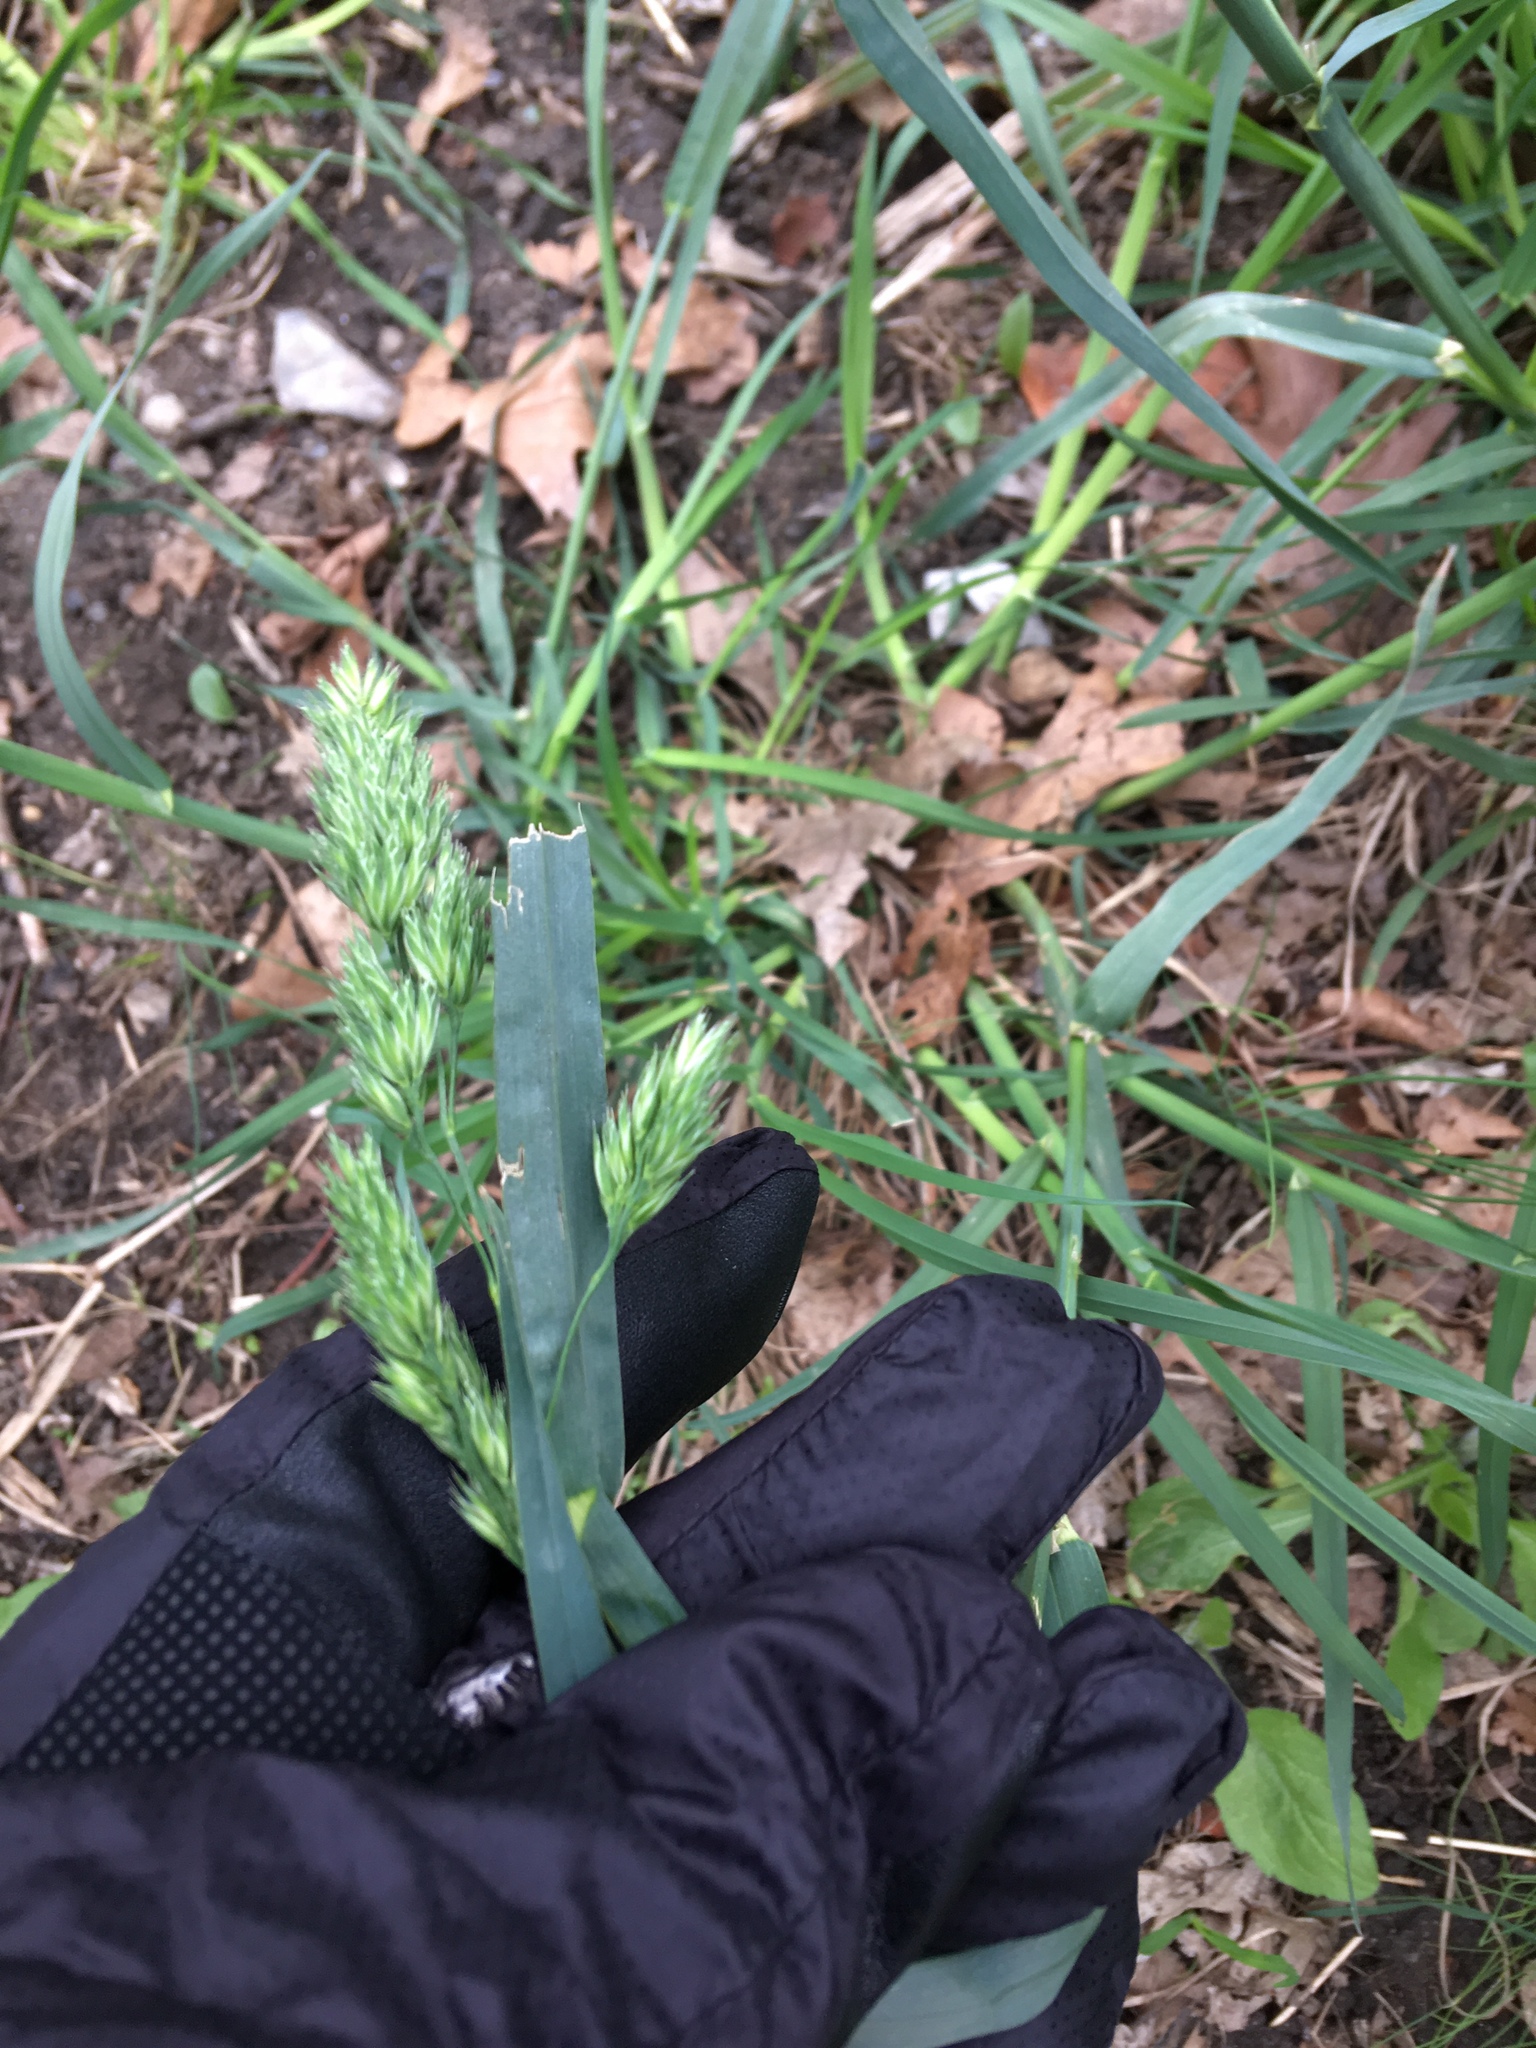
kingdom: Plantae
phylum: Tracheophyta
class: Liliopsida
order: Poales
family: Poaceae
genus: Dactylis
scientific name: Dactylis glomerata
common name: Orchardgrass
